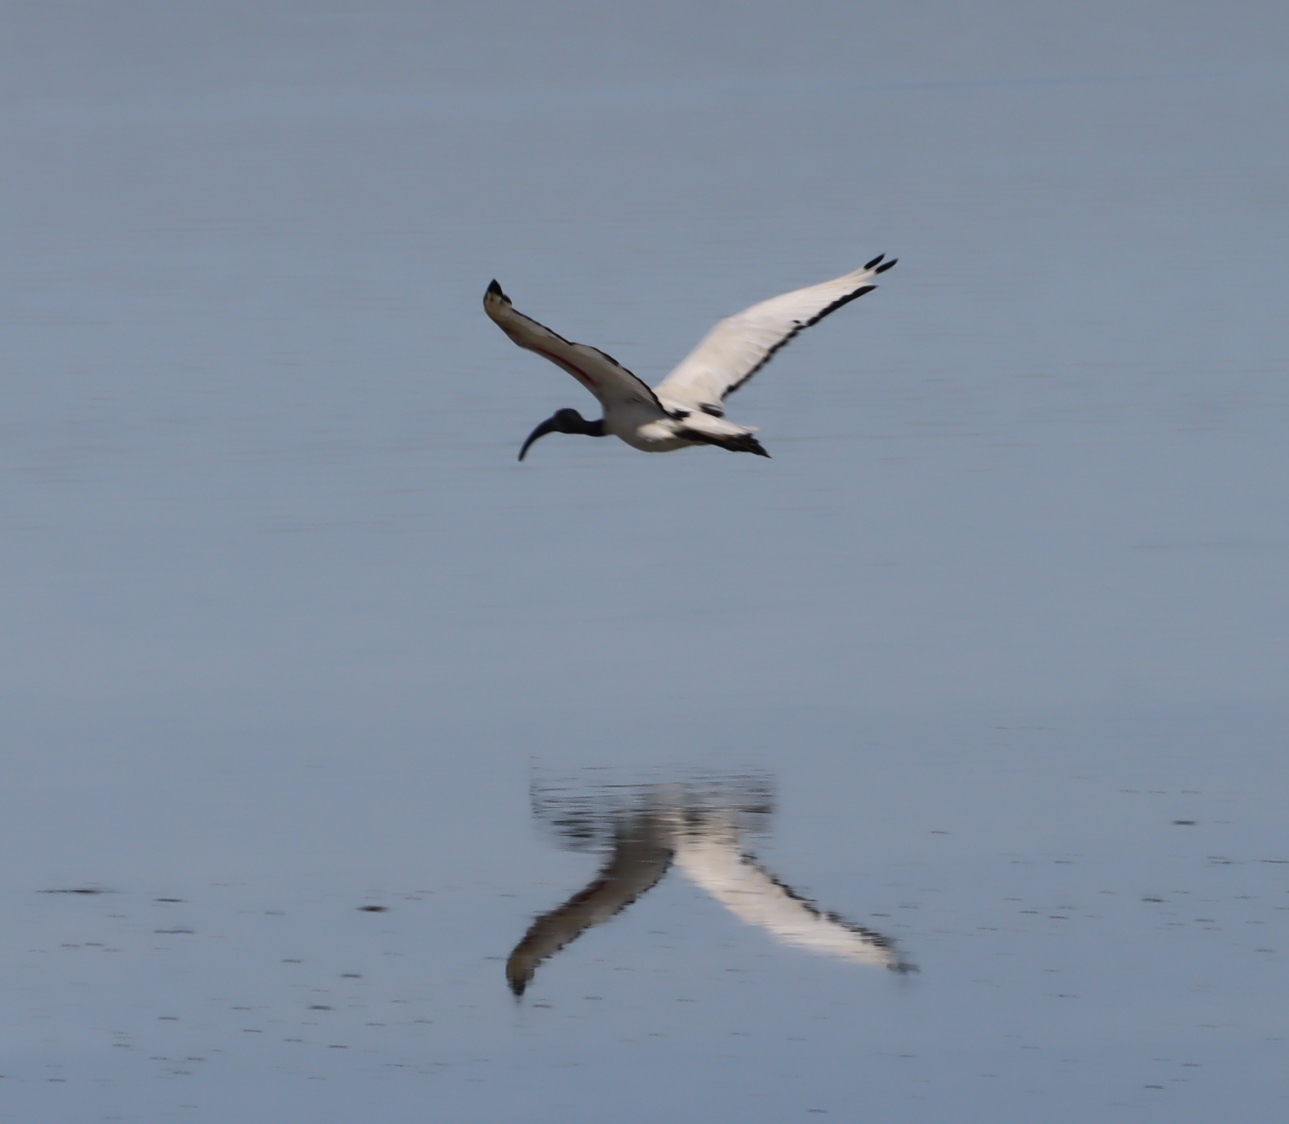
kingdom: Animalia
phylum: Chordata
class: Aves
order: Pelecaniformes
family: Threskiornithidae
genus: Threskiornis
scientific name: Threskiornis aethiopicus
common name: Sacred ibis
